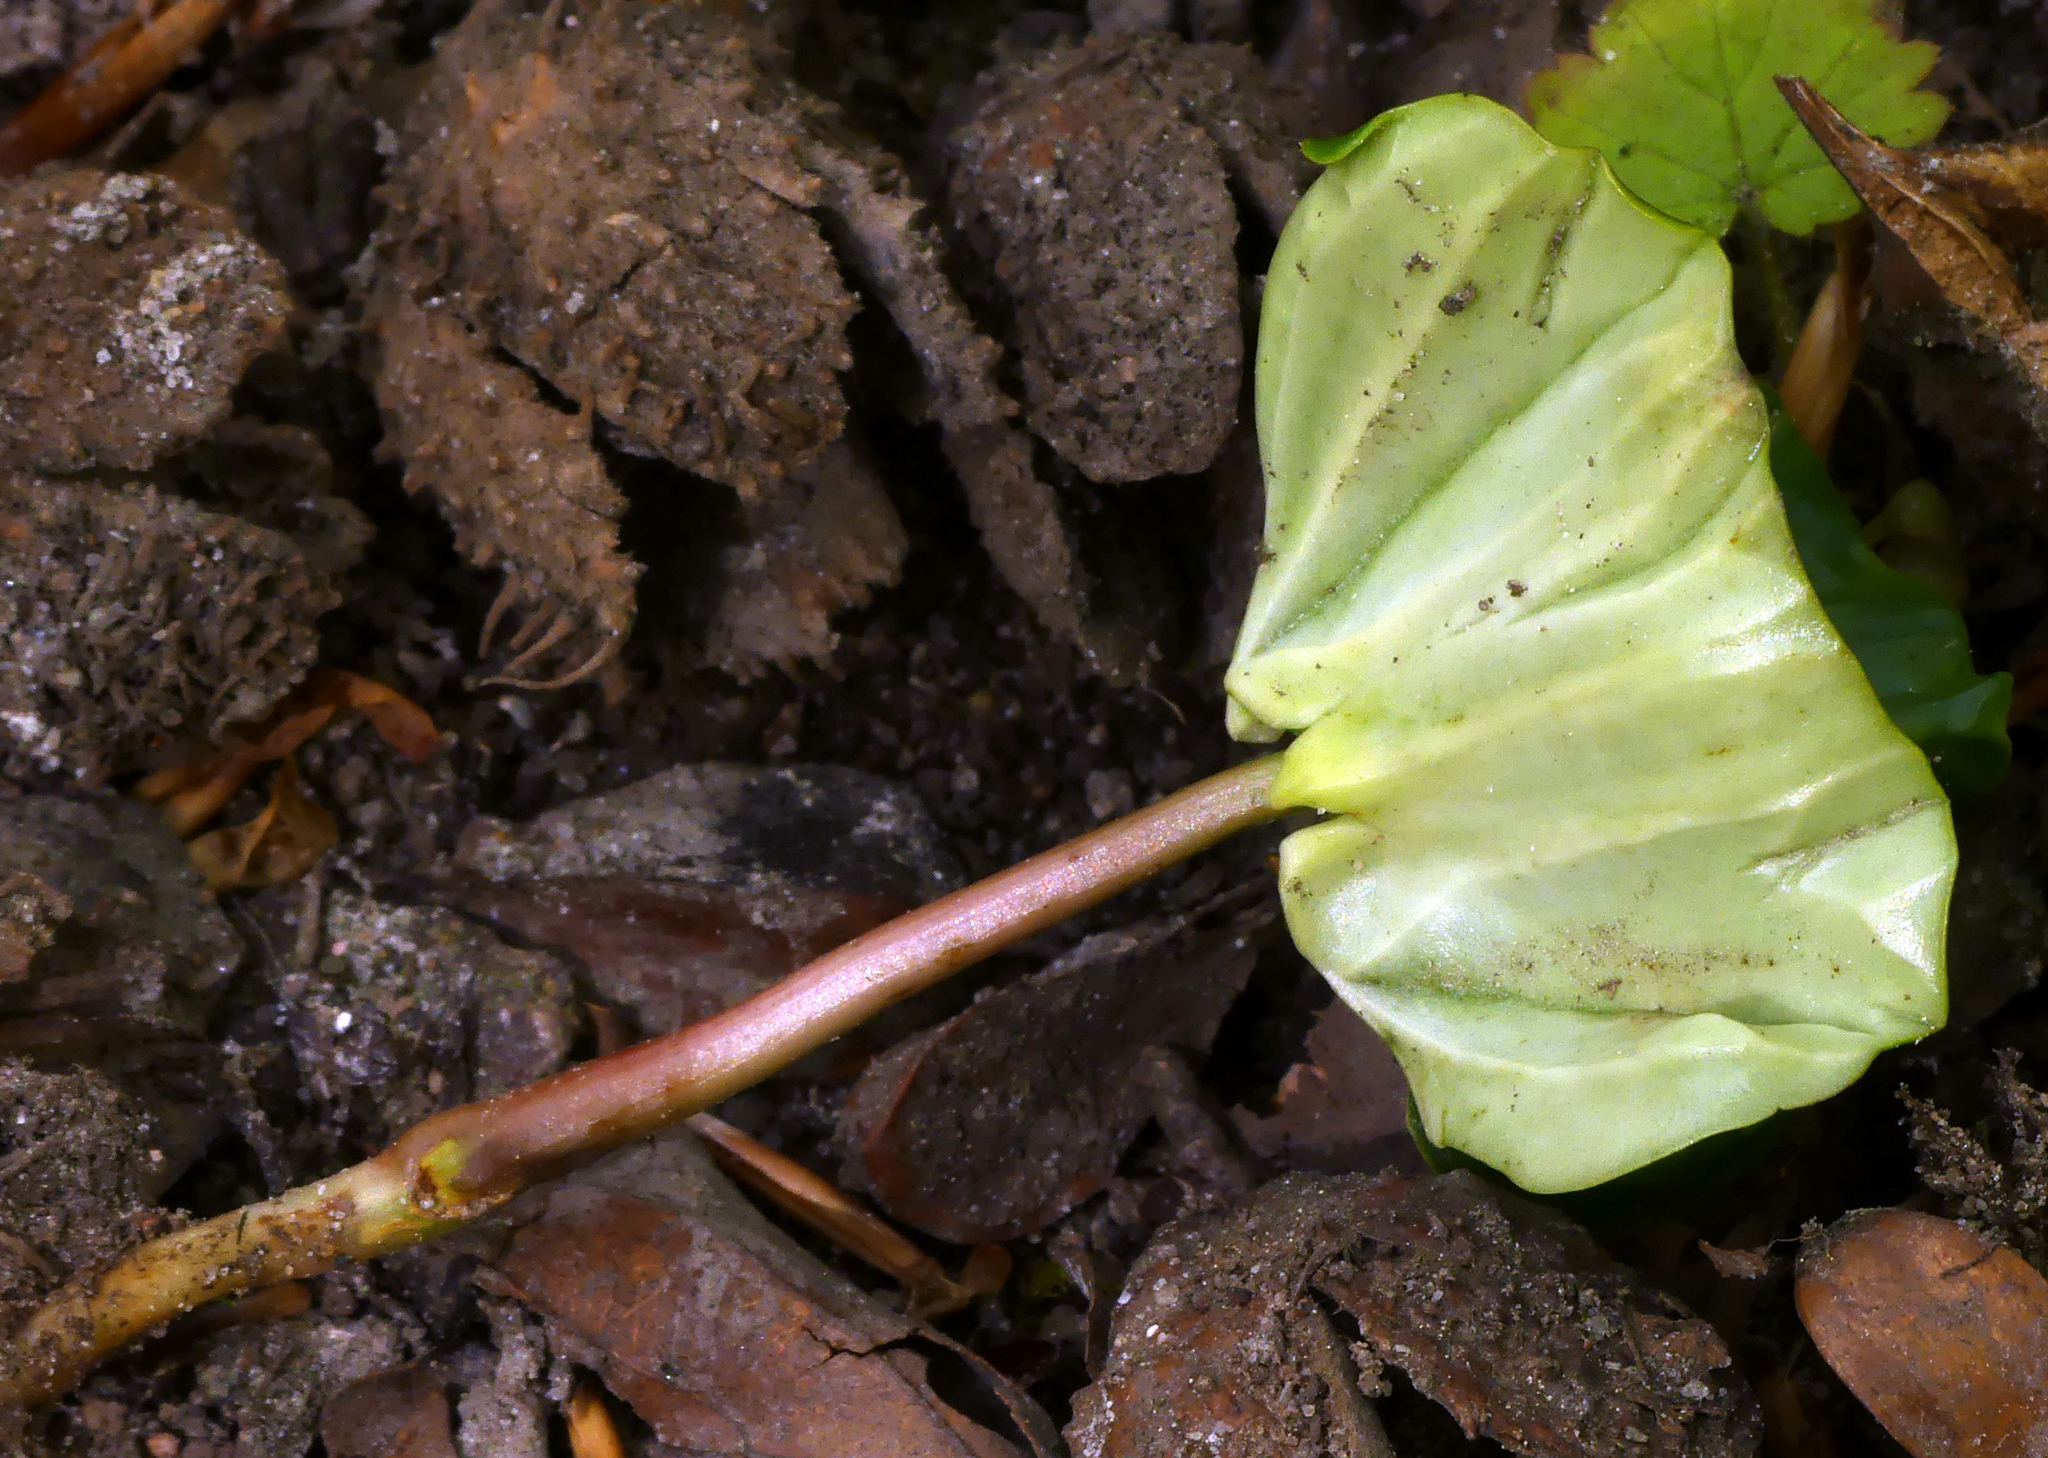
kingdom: Plantae
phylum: Tracheophyta
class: Magnoliopsida
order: Fagales
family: Fagaceae
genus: Fagus
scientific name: Fagus sylvatica
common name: Beech
